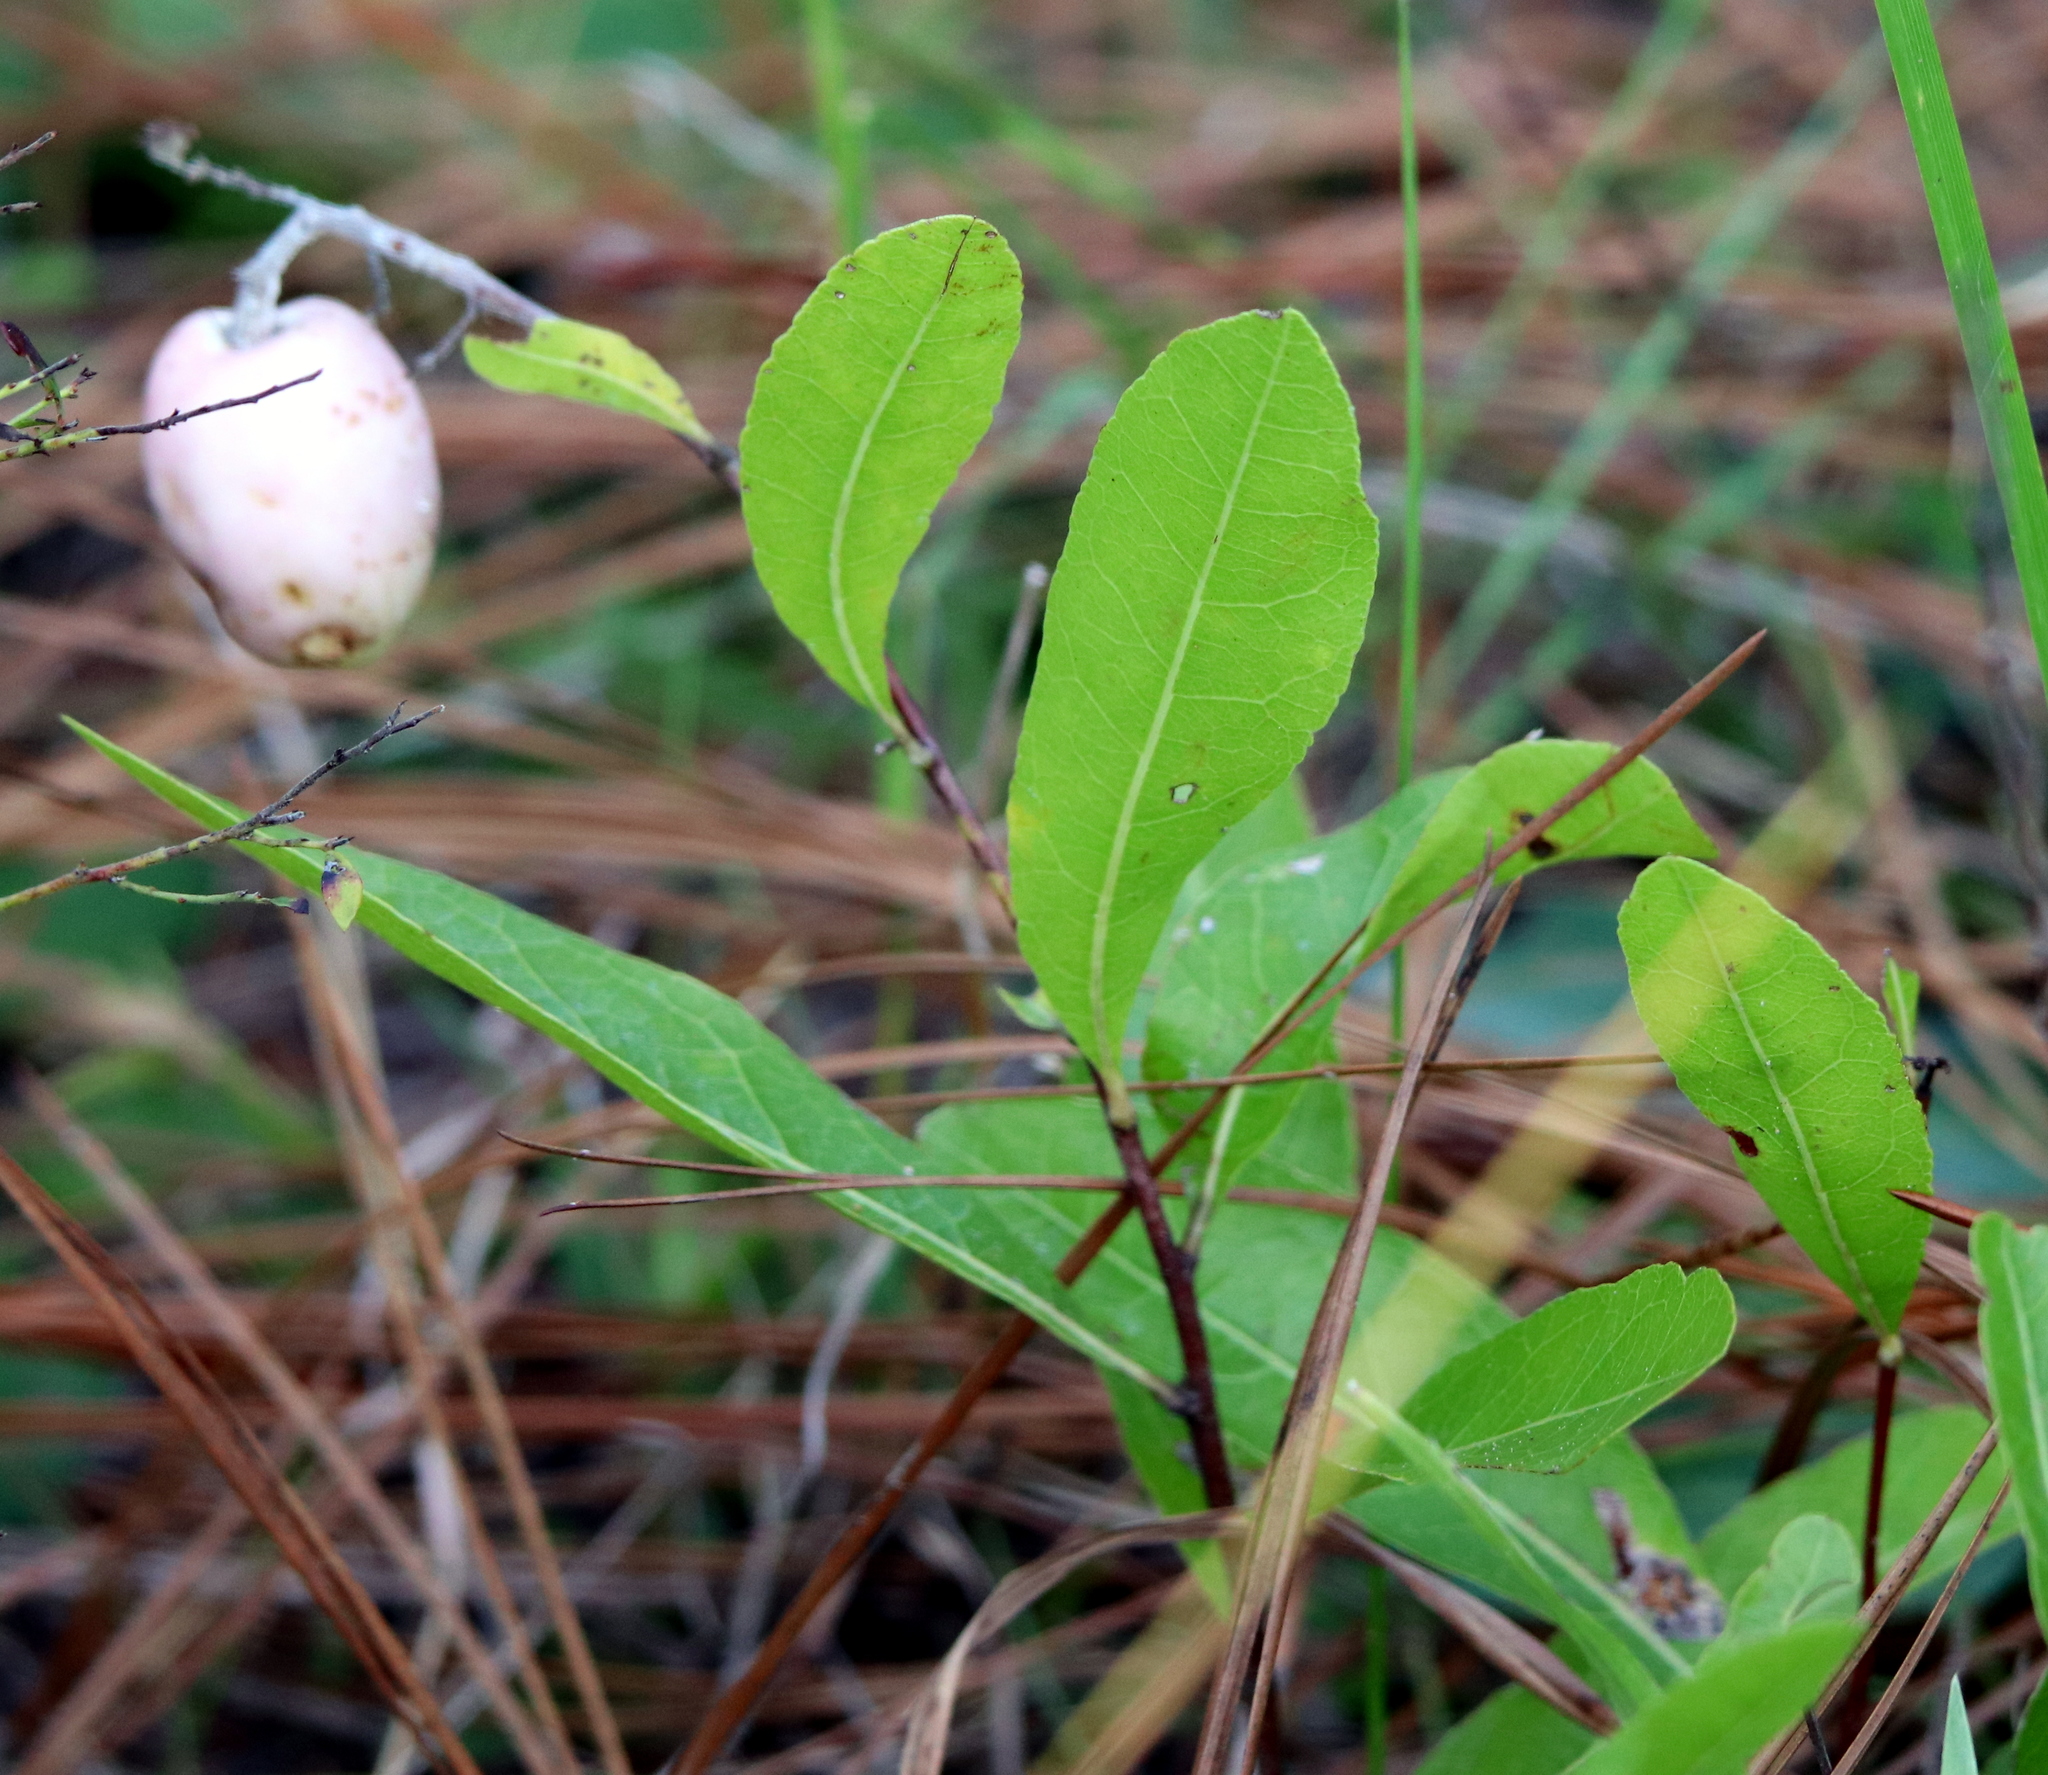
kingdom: Plantae
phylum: Tracheophyta
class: Magnoliopsida
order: Malpighiales
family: Chrysobalanaceae
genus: Geobalanus
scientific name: Geobalanus oblongifolius
